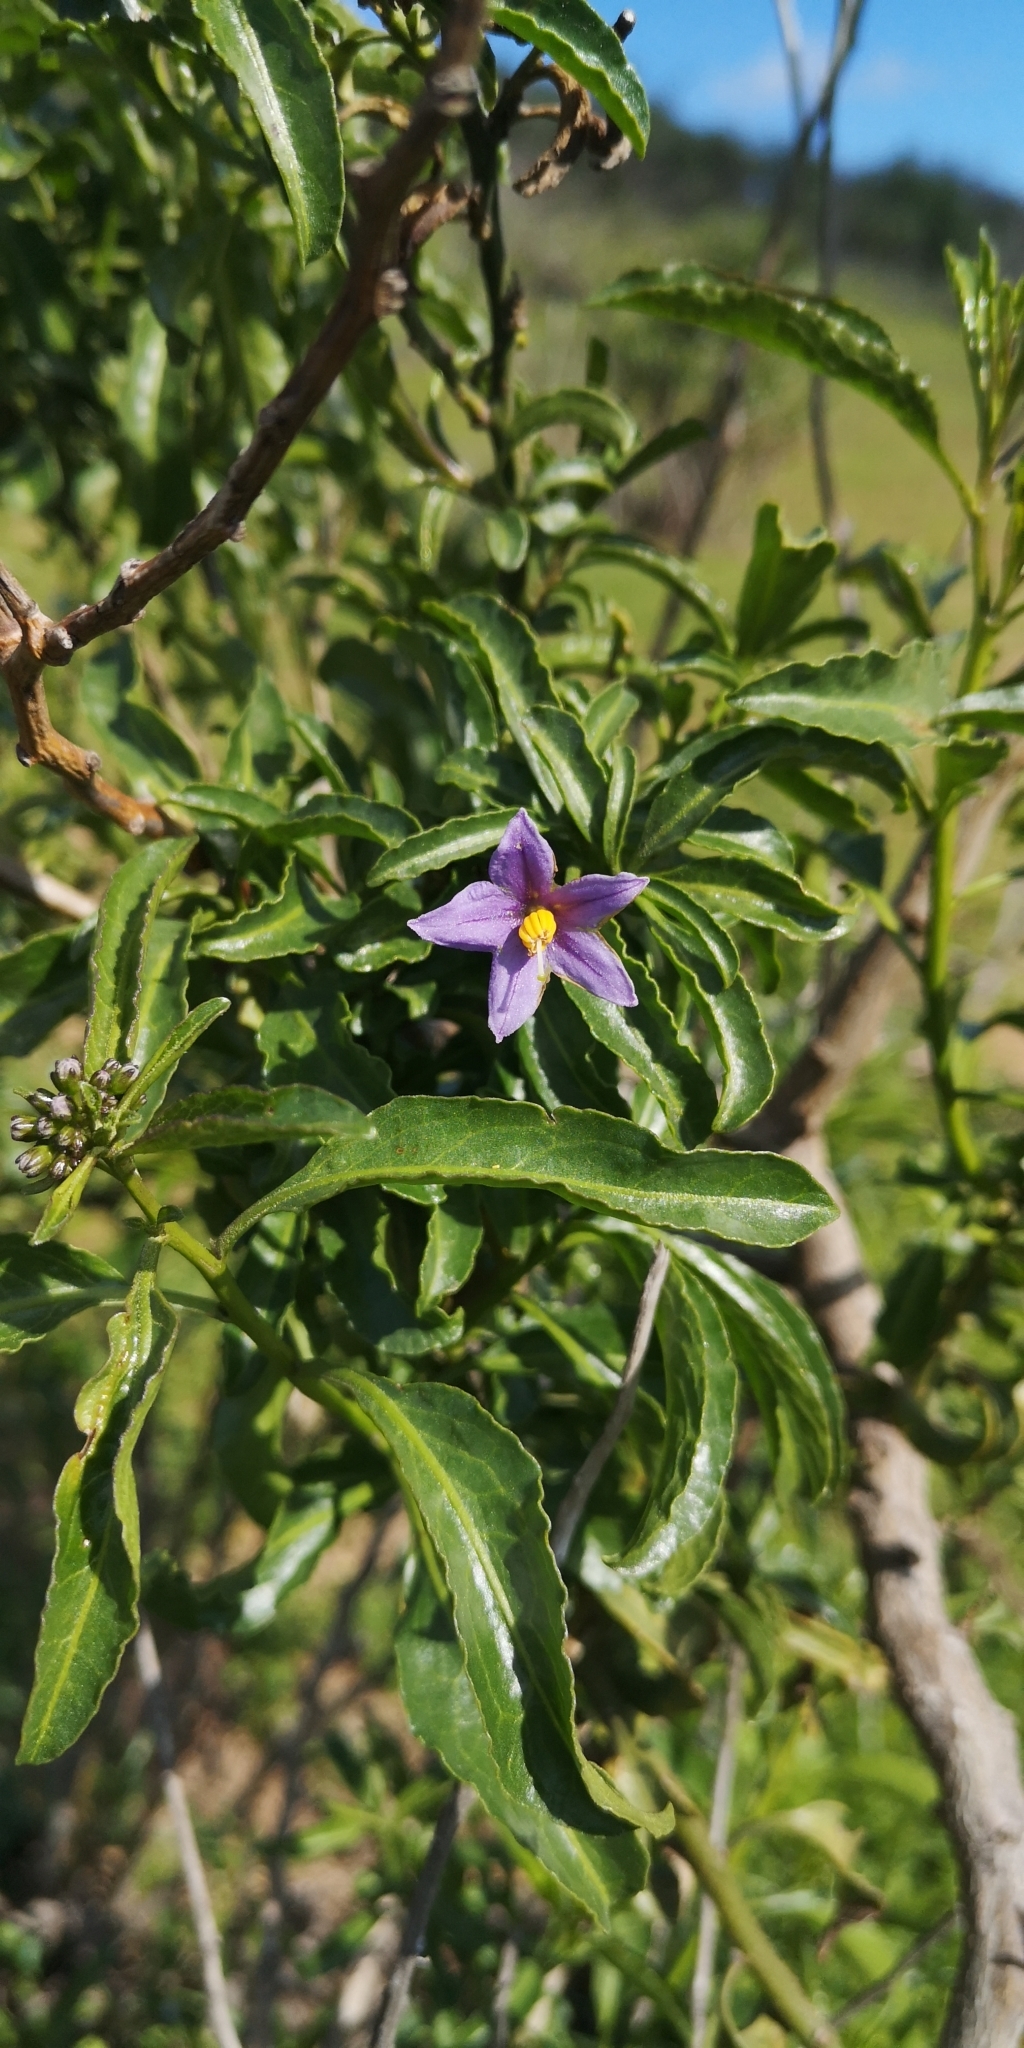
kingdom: Plantae
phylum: Tracheophyta
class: Magnoliopsida
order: Solanales
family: Solanaceae
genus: Solanum
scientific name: Solanum crispum
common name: Chilean nightshade
